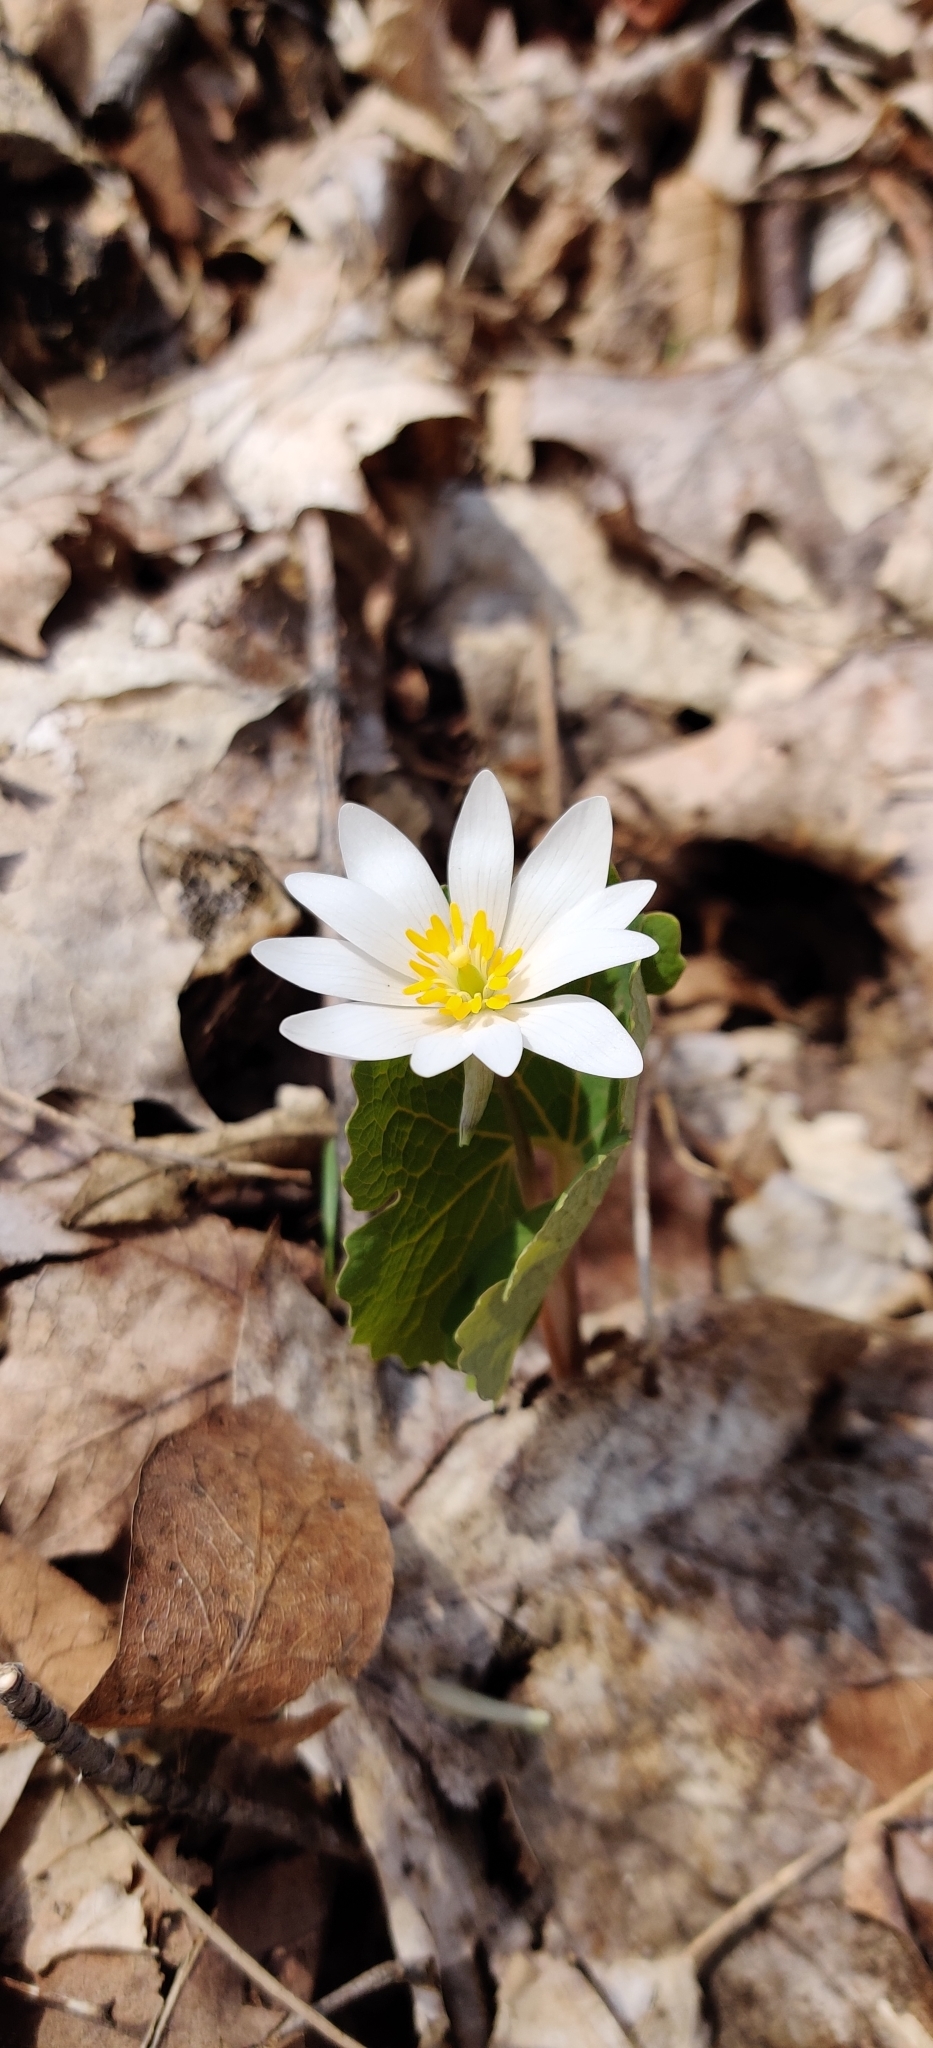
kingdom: Plantae
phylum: Tracheophyta
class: Magnoliopsida
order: Ranunculales
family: Papaveraceae
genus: Sanguinaria
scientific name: Sanguinaria canadensis
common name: Bloodroot
